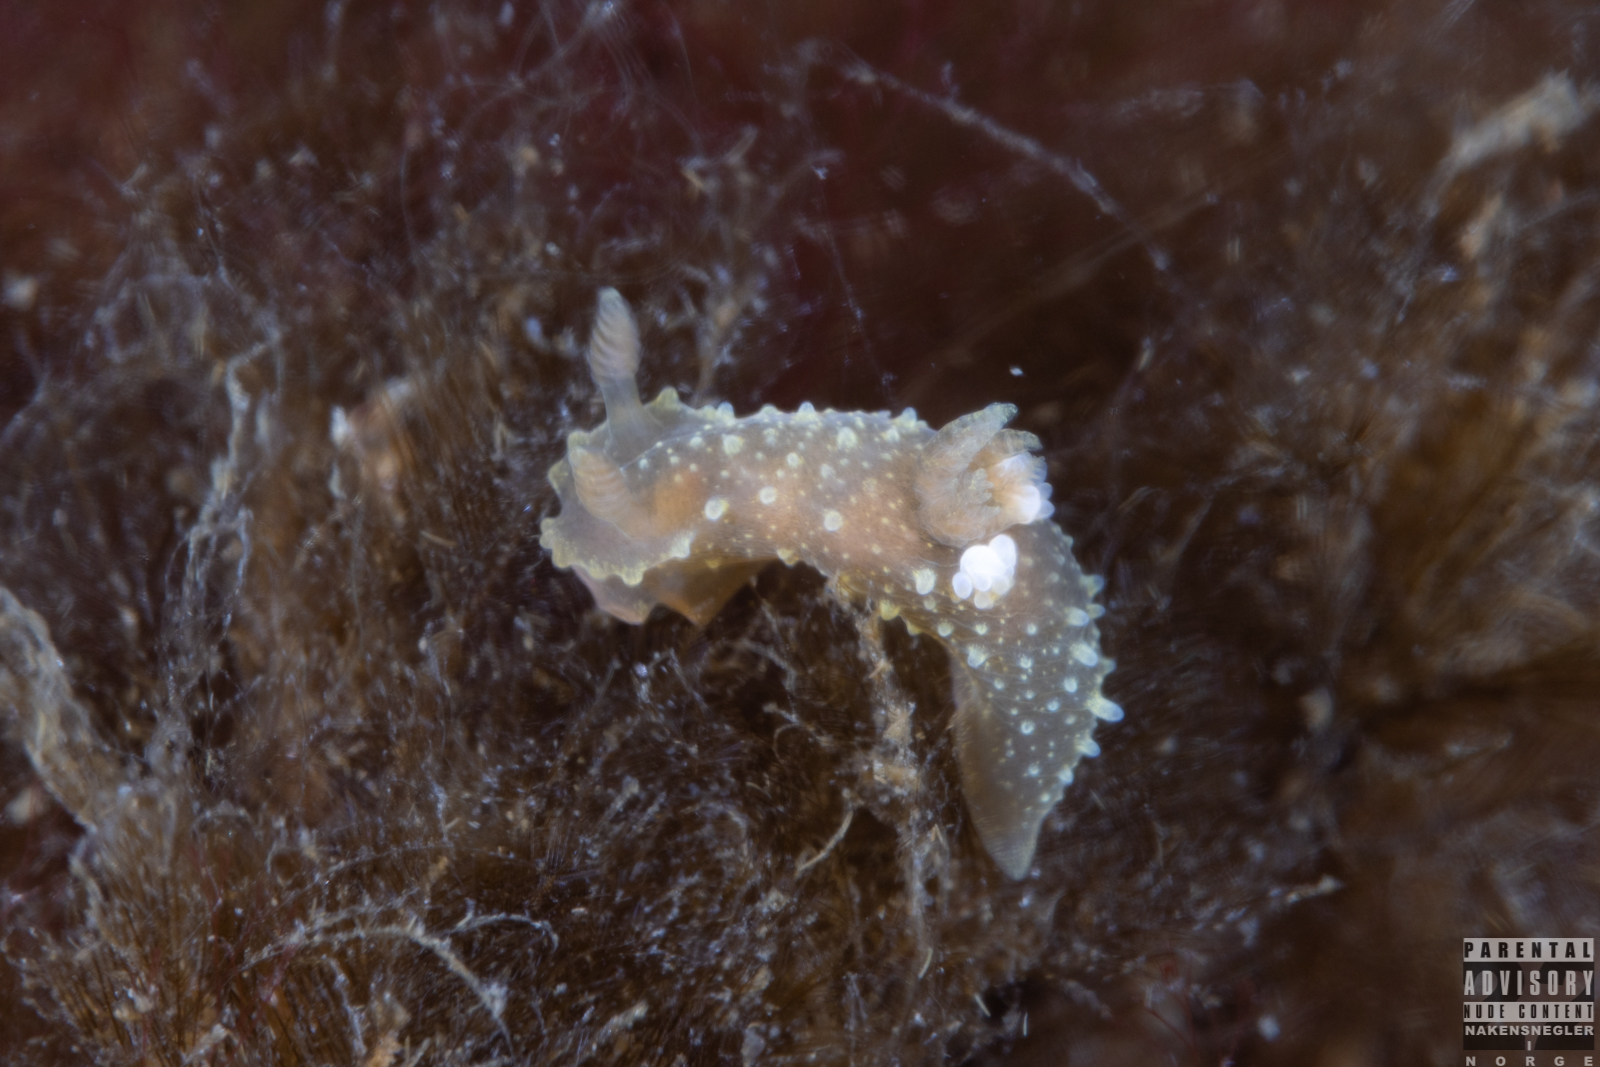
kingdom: Animalia
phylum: Mollusca
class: Gastropoda
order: Nudibranchia
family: Polyceridae
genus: Palio
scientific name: Palio dubia
